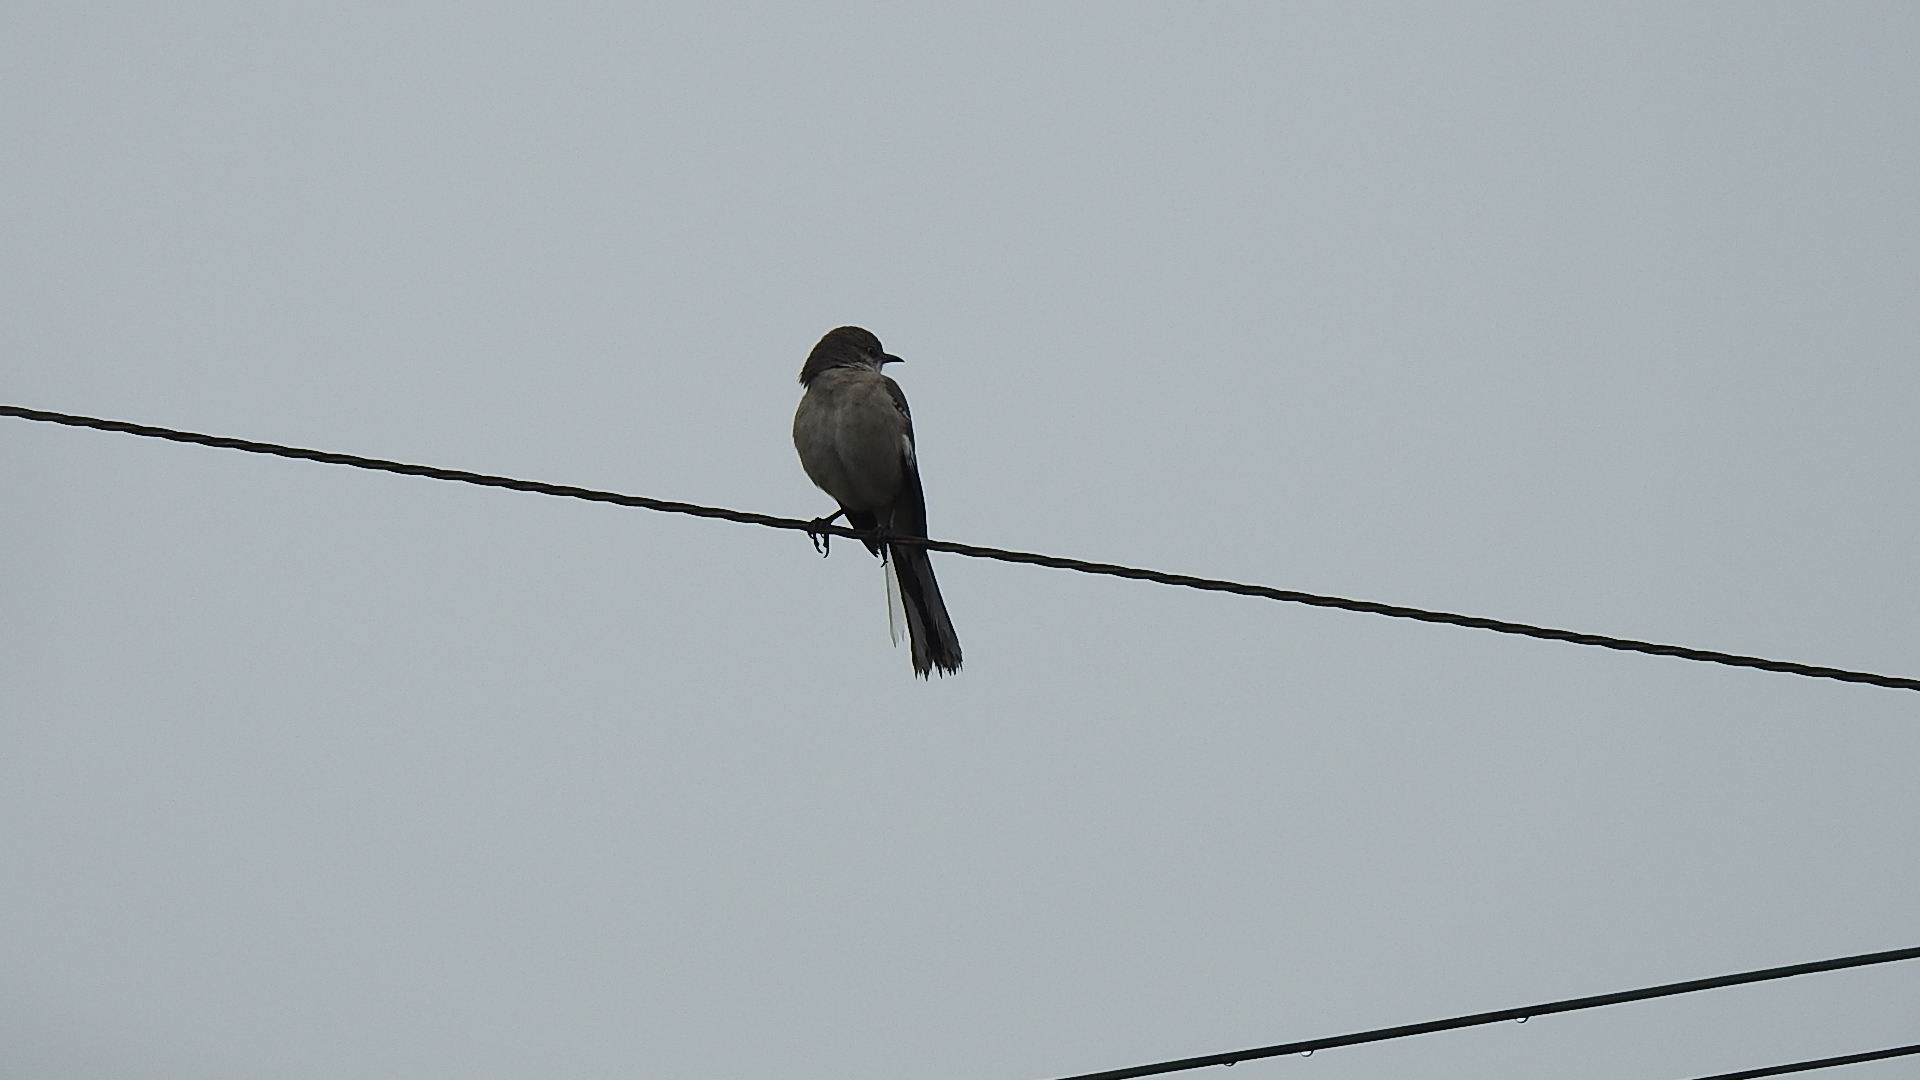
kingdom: Animalia
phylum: Chordata
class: Aves
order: Passeriformes
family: Mimidae
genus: Mimus
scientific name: Mimus polyglottos
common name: Northern mockingbird
